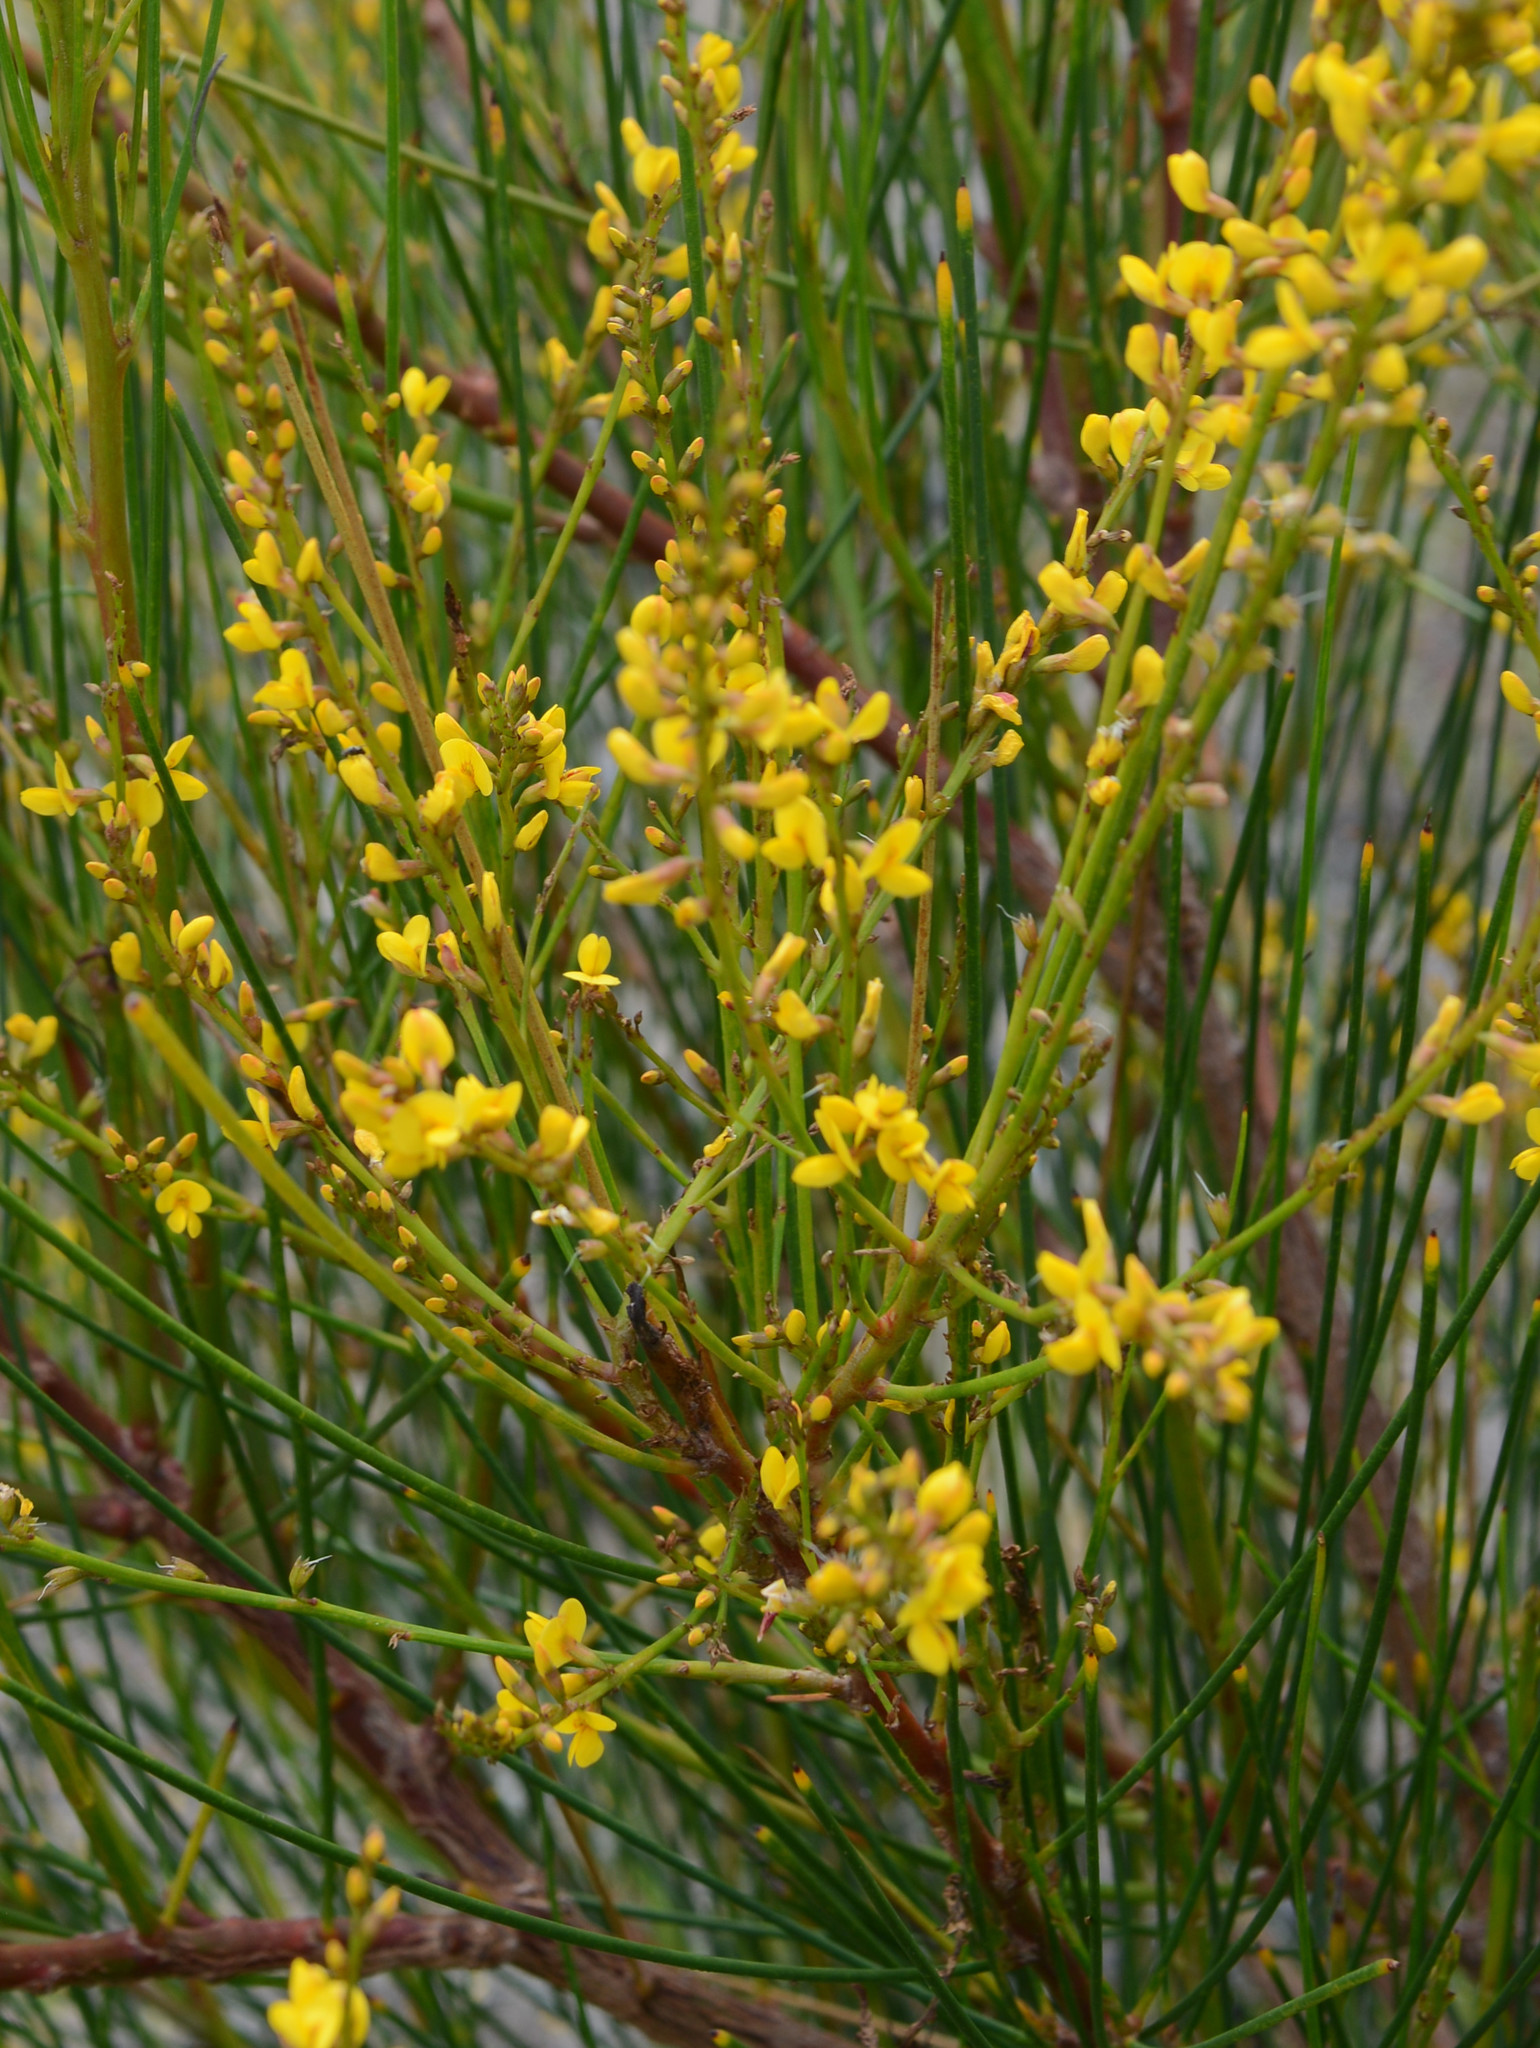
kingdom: Plantae
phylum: Tracheophyta
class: Magnoliopsida
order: Fabales
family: Fabaceae
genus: Viminaria
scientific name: Viminaria juncea
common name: Golden spray
